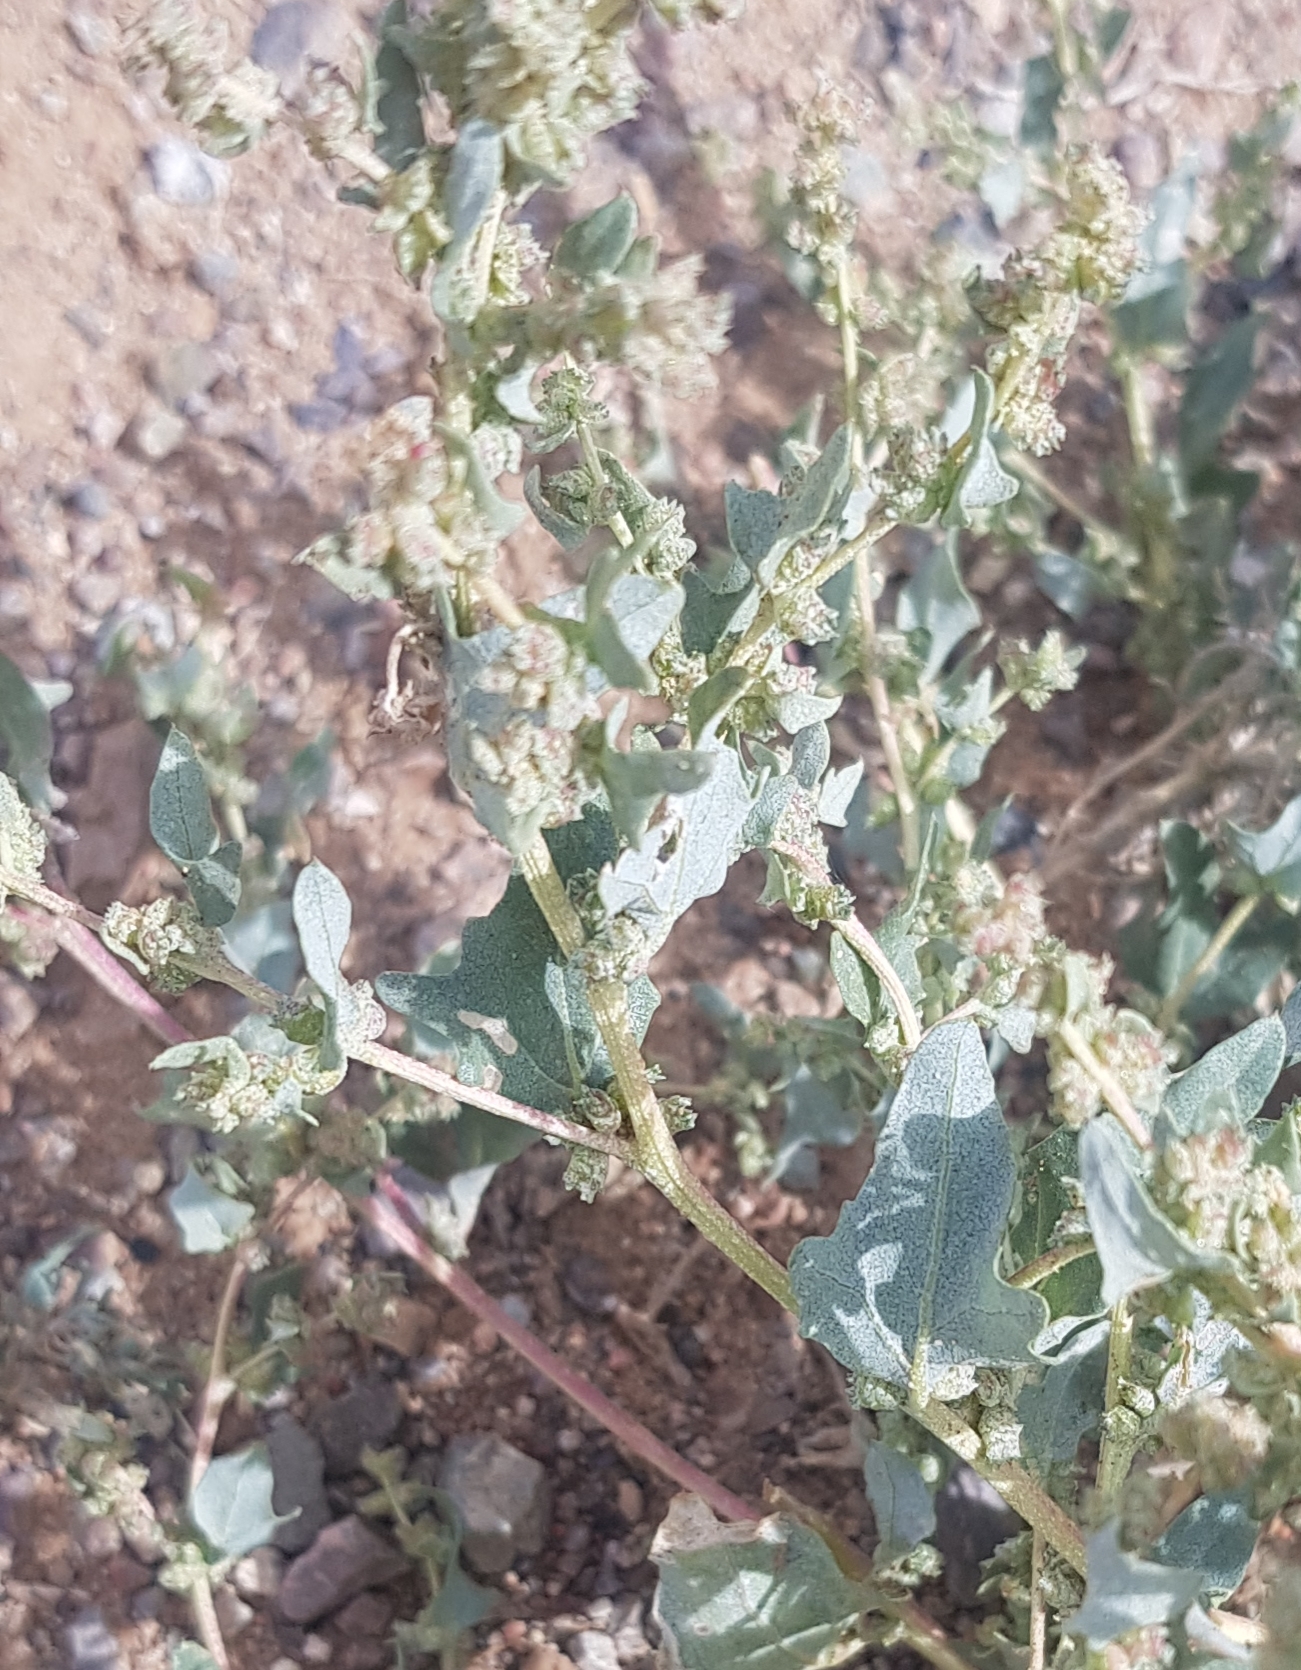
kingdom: Plantae
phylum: Tracheophyta
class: Magnoliopsida
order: Caryophyllales
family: Amaranthaceae
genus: Atriplex
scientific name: Atriplex sibirica
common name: Siberian saltbush
